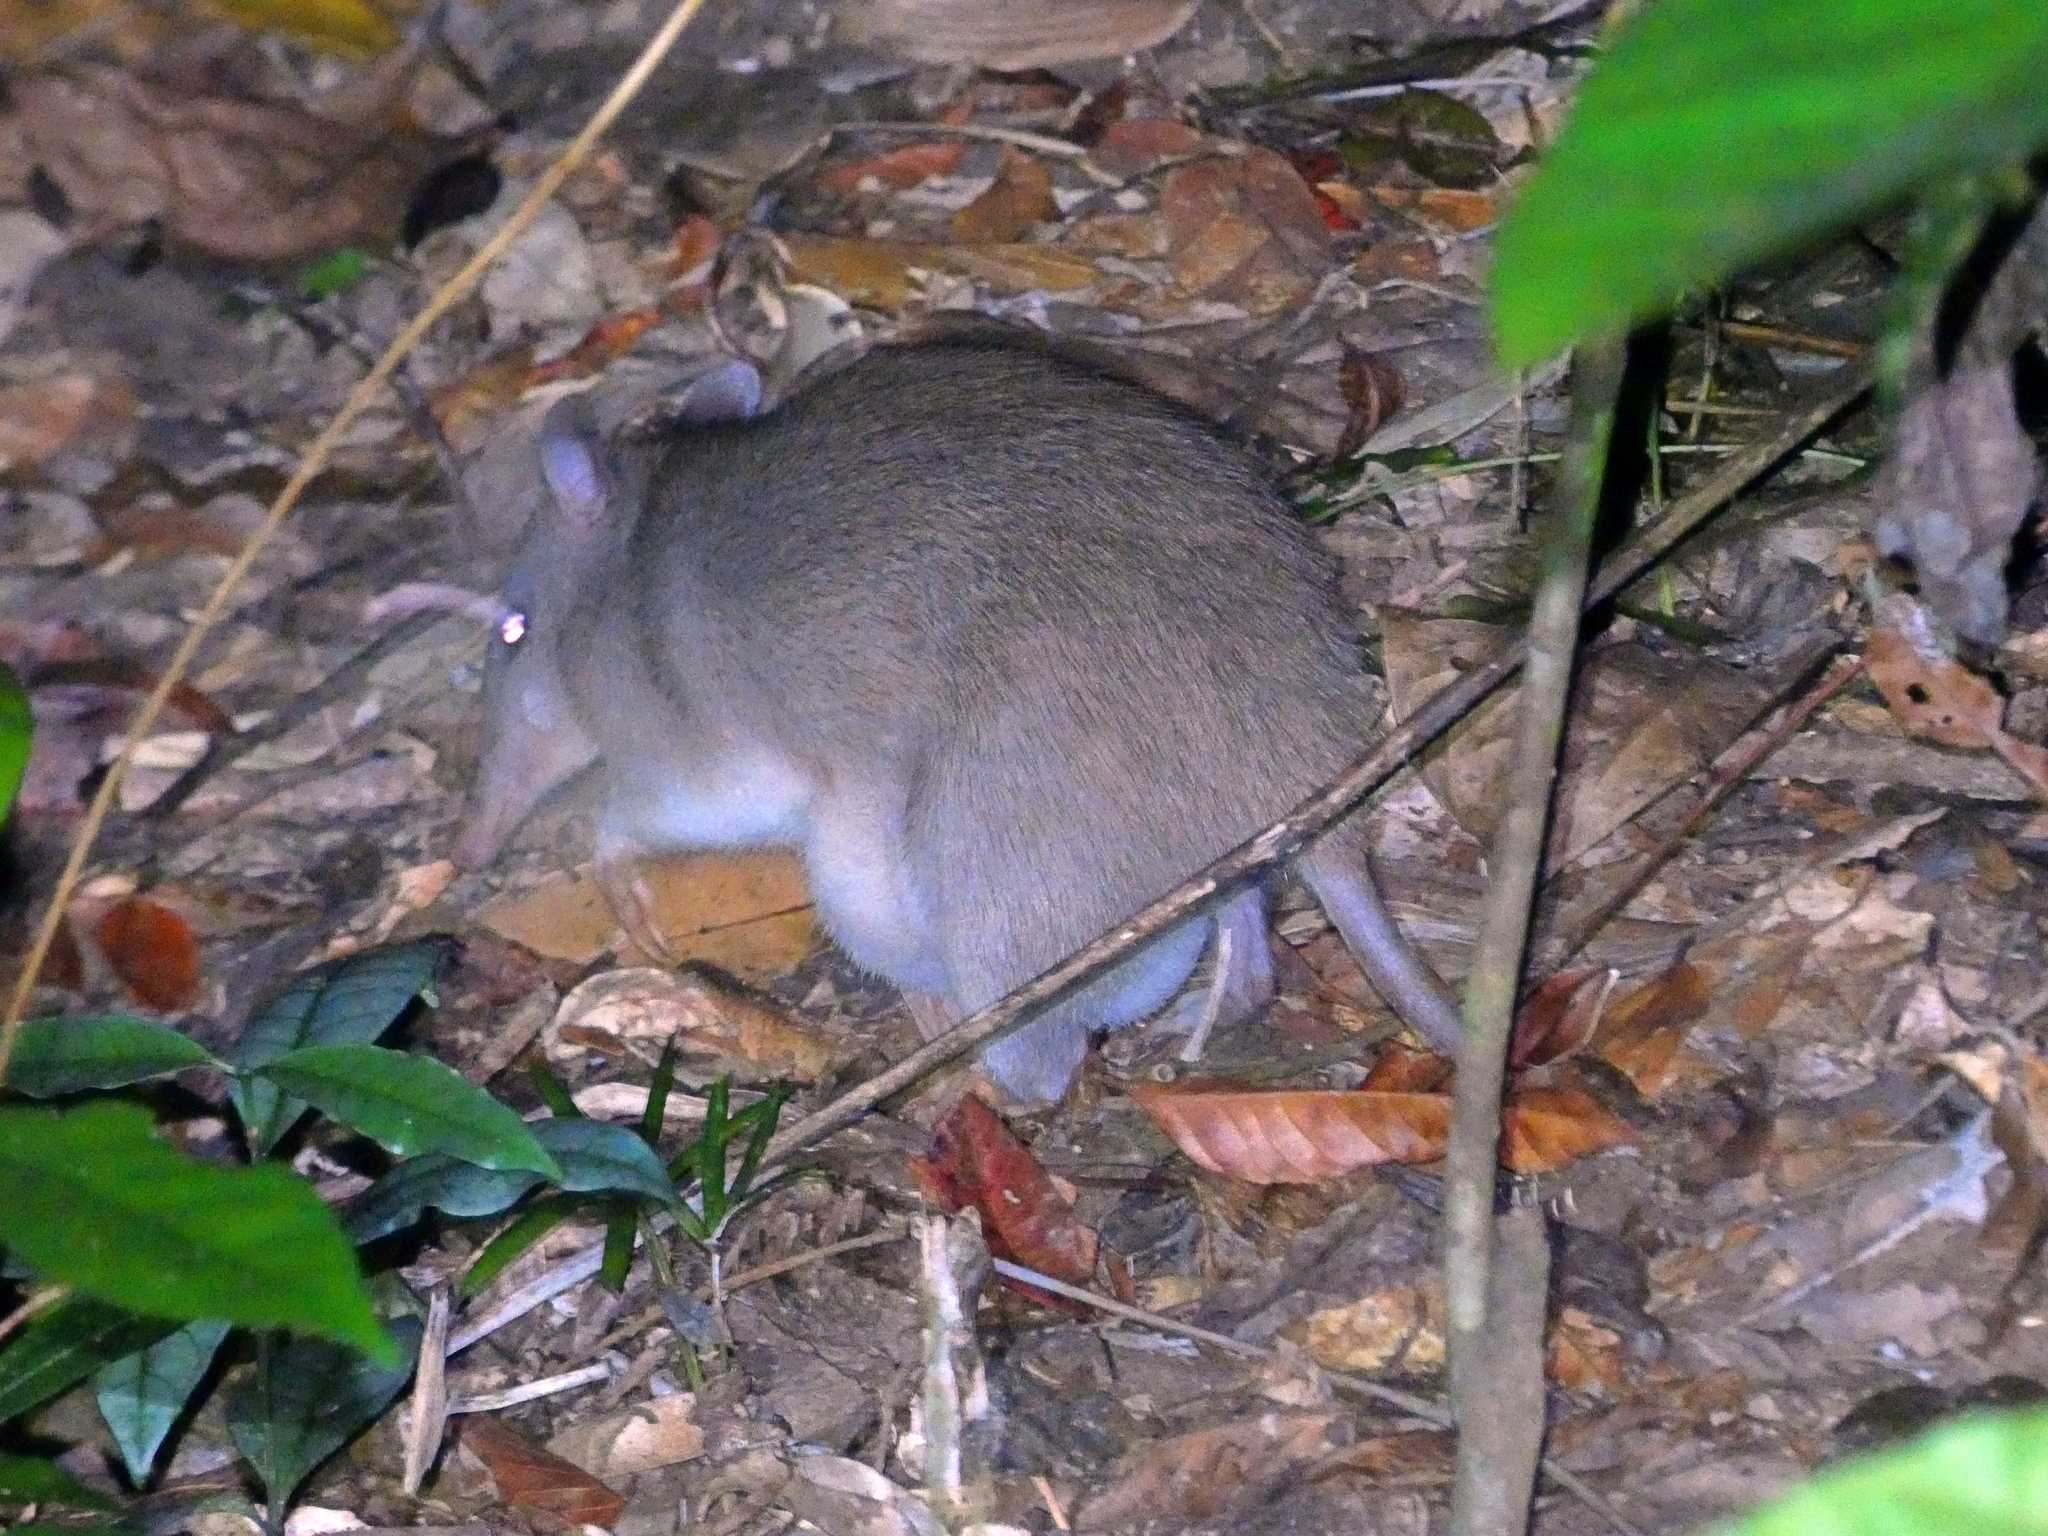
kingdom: Animalia
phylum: Chordata
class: Mammalia
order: Peramelemorphia
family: Peramelidae
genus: Perameles
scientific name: Perameles pallescens
